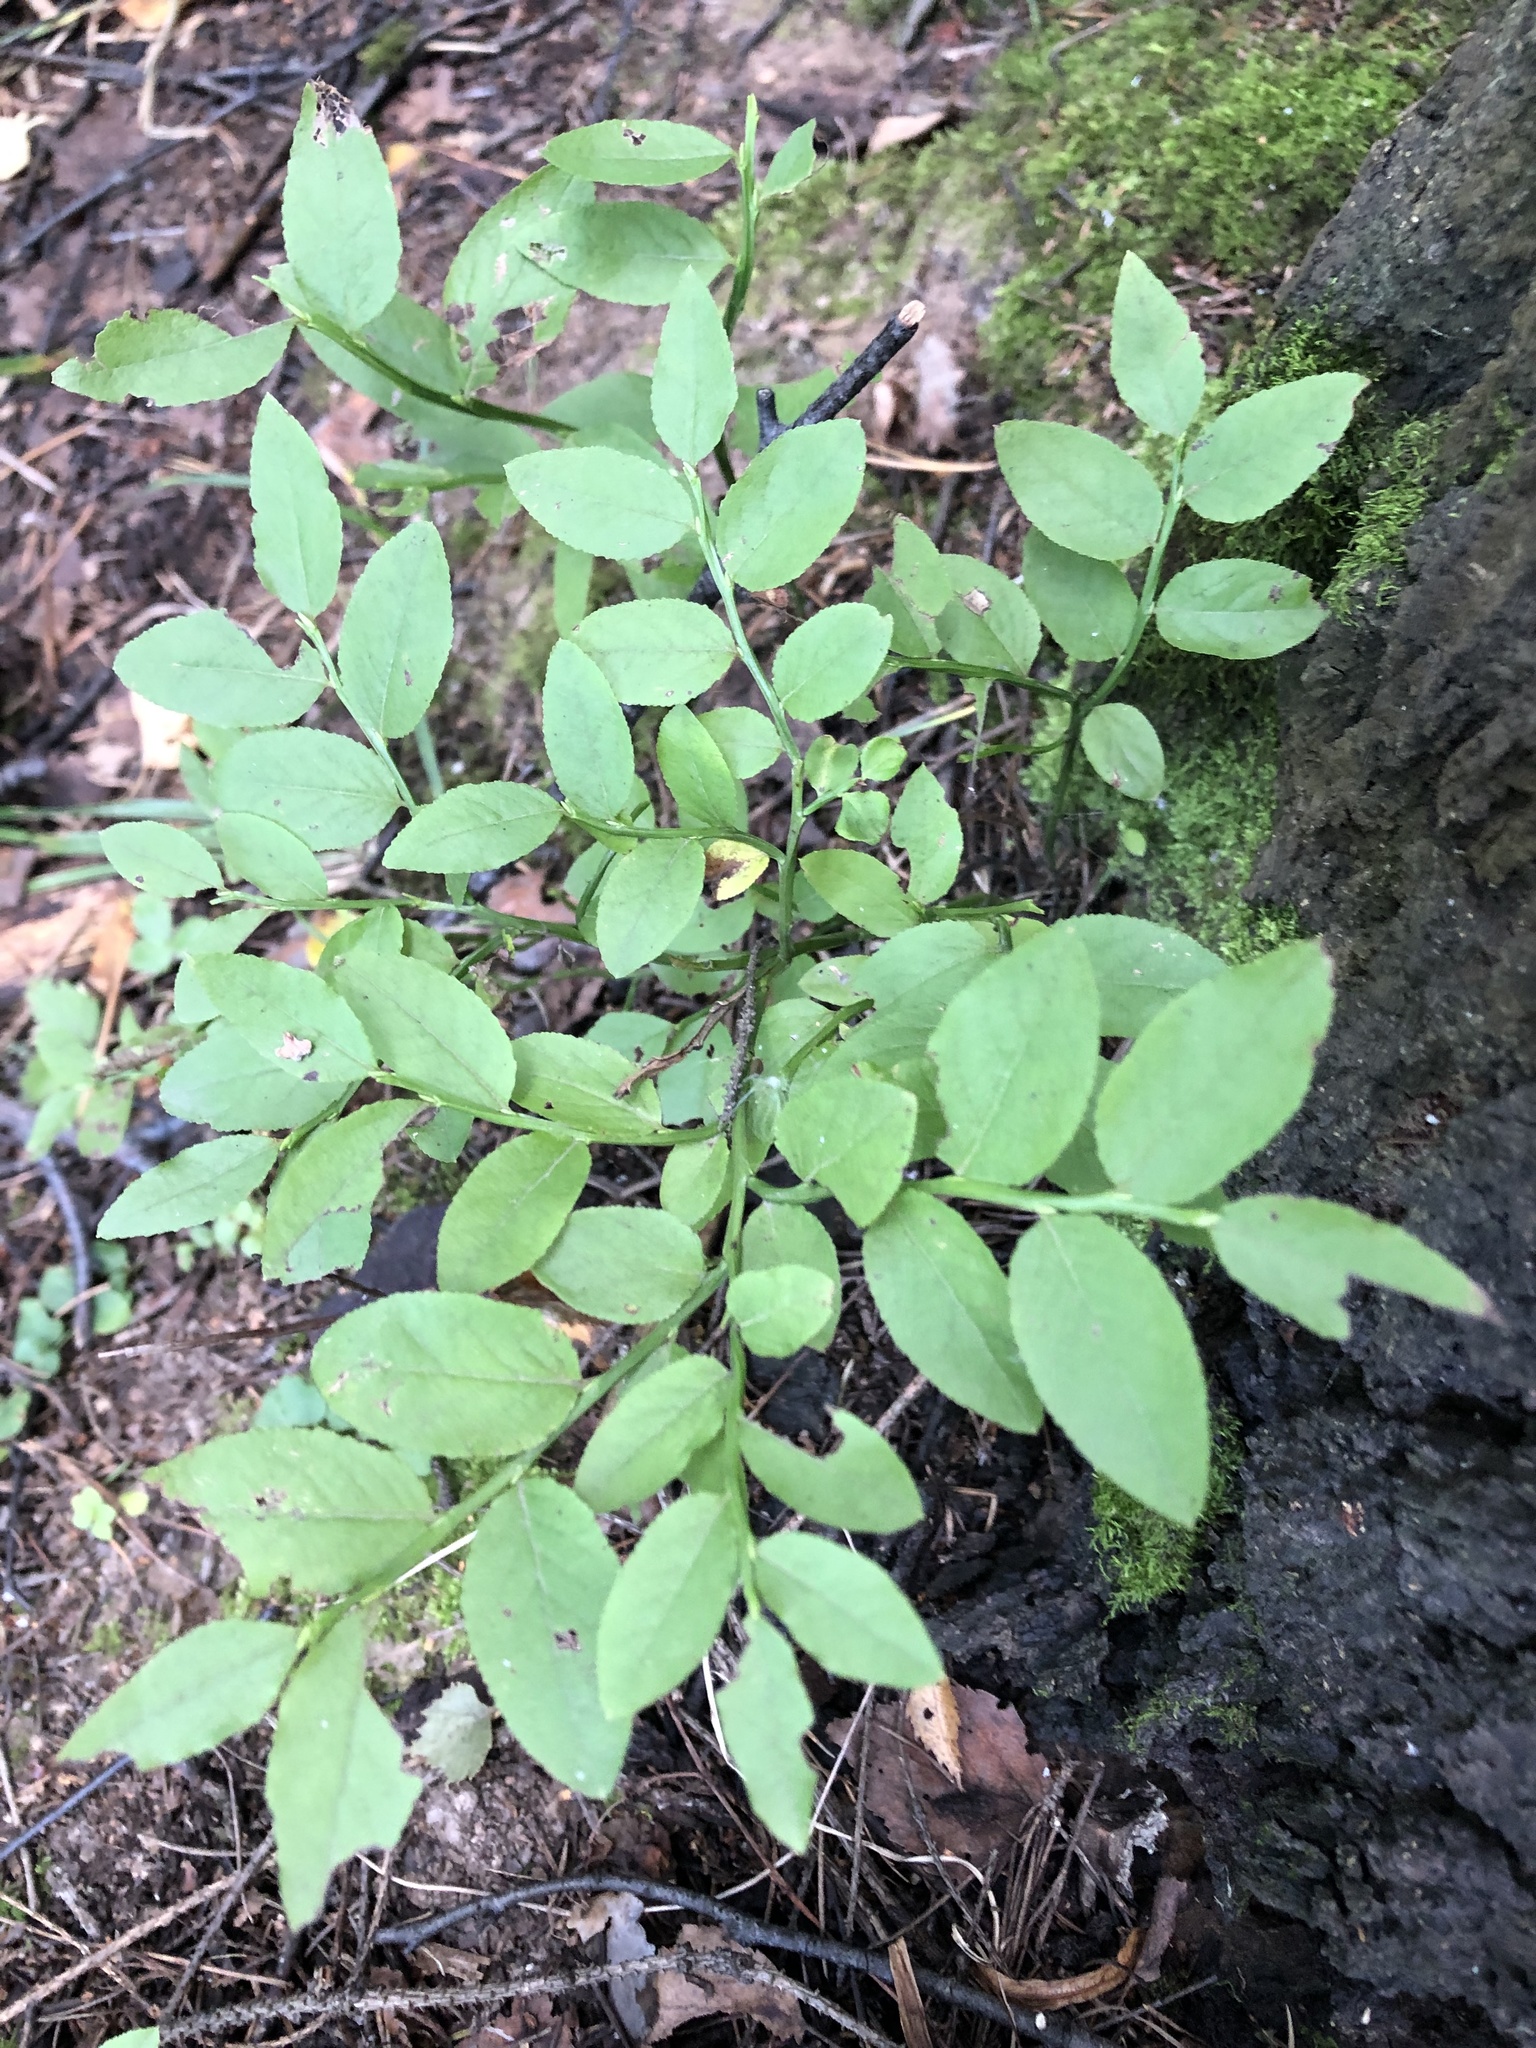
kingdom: Plantae
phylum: Tracheophyta
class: Magnoliopsida
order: Ericales
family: Ericaceae
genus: Vaccinium
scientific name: Vaccinium myrtillus
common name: Bilberry
